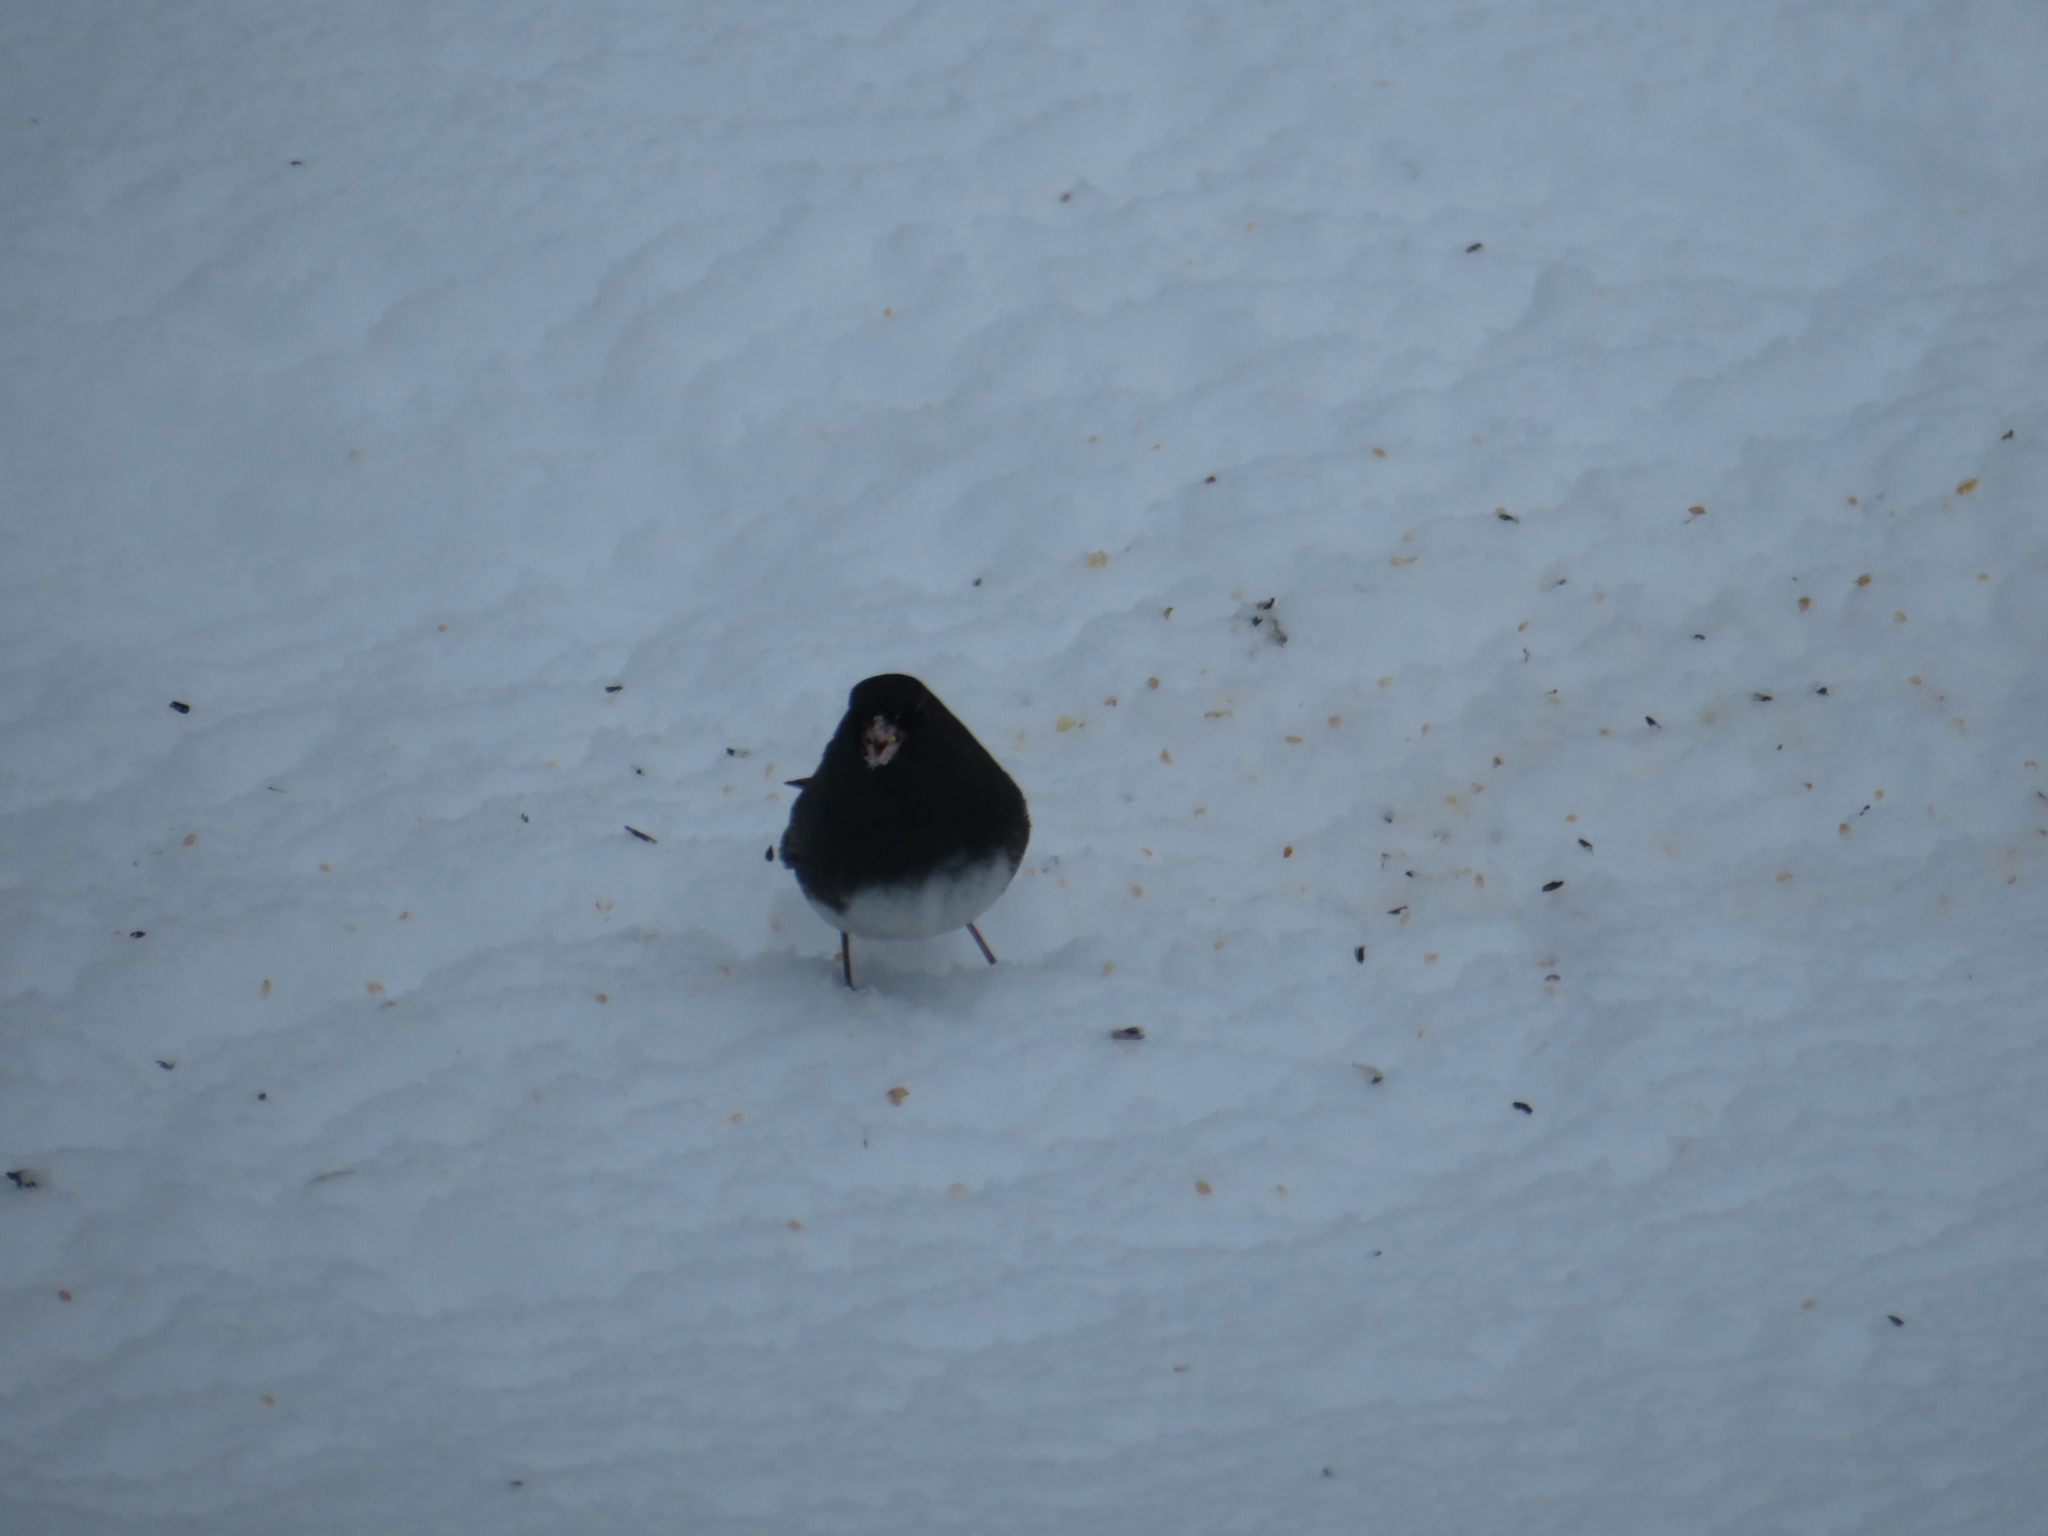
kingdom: Animalia
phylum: Chordata
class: Aves
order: Passeriformes
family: Passerellidae
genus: Junco
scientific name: Junco hyemalis
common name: Dark-eyed junco
